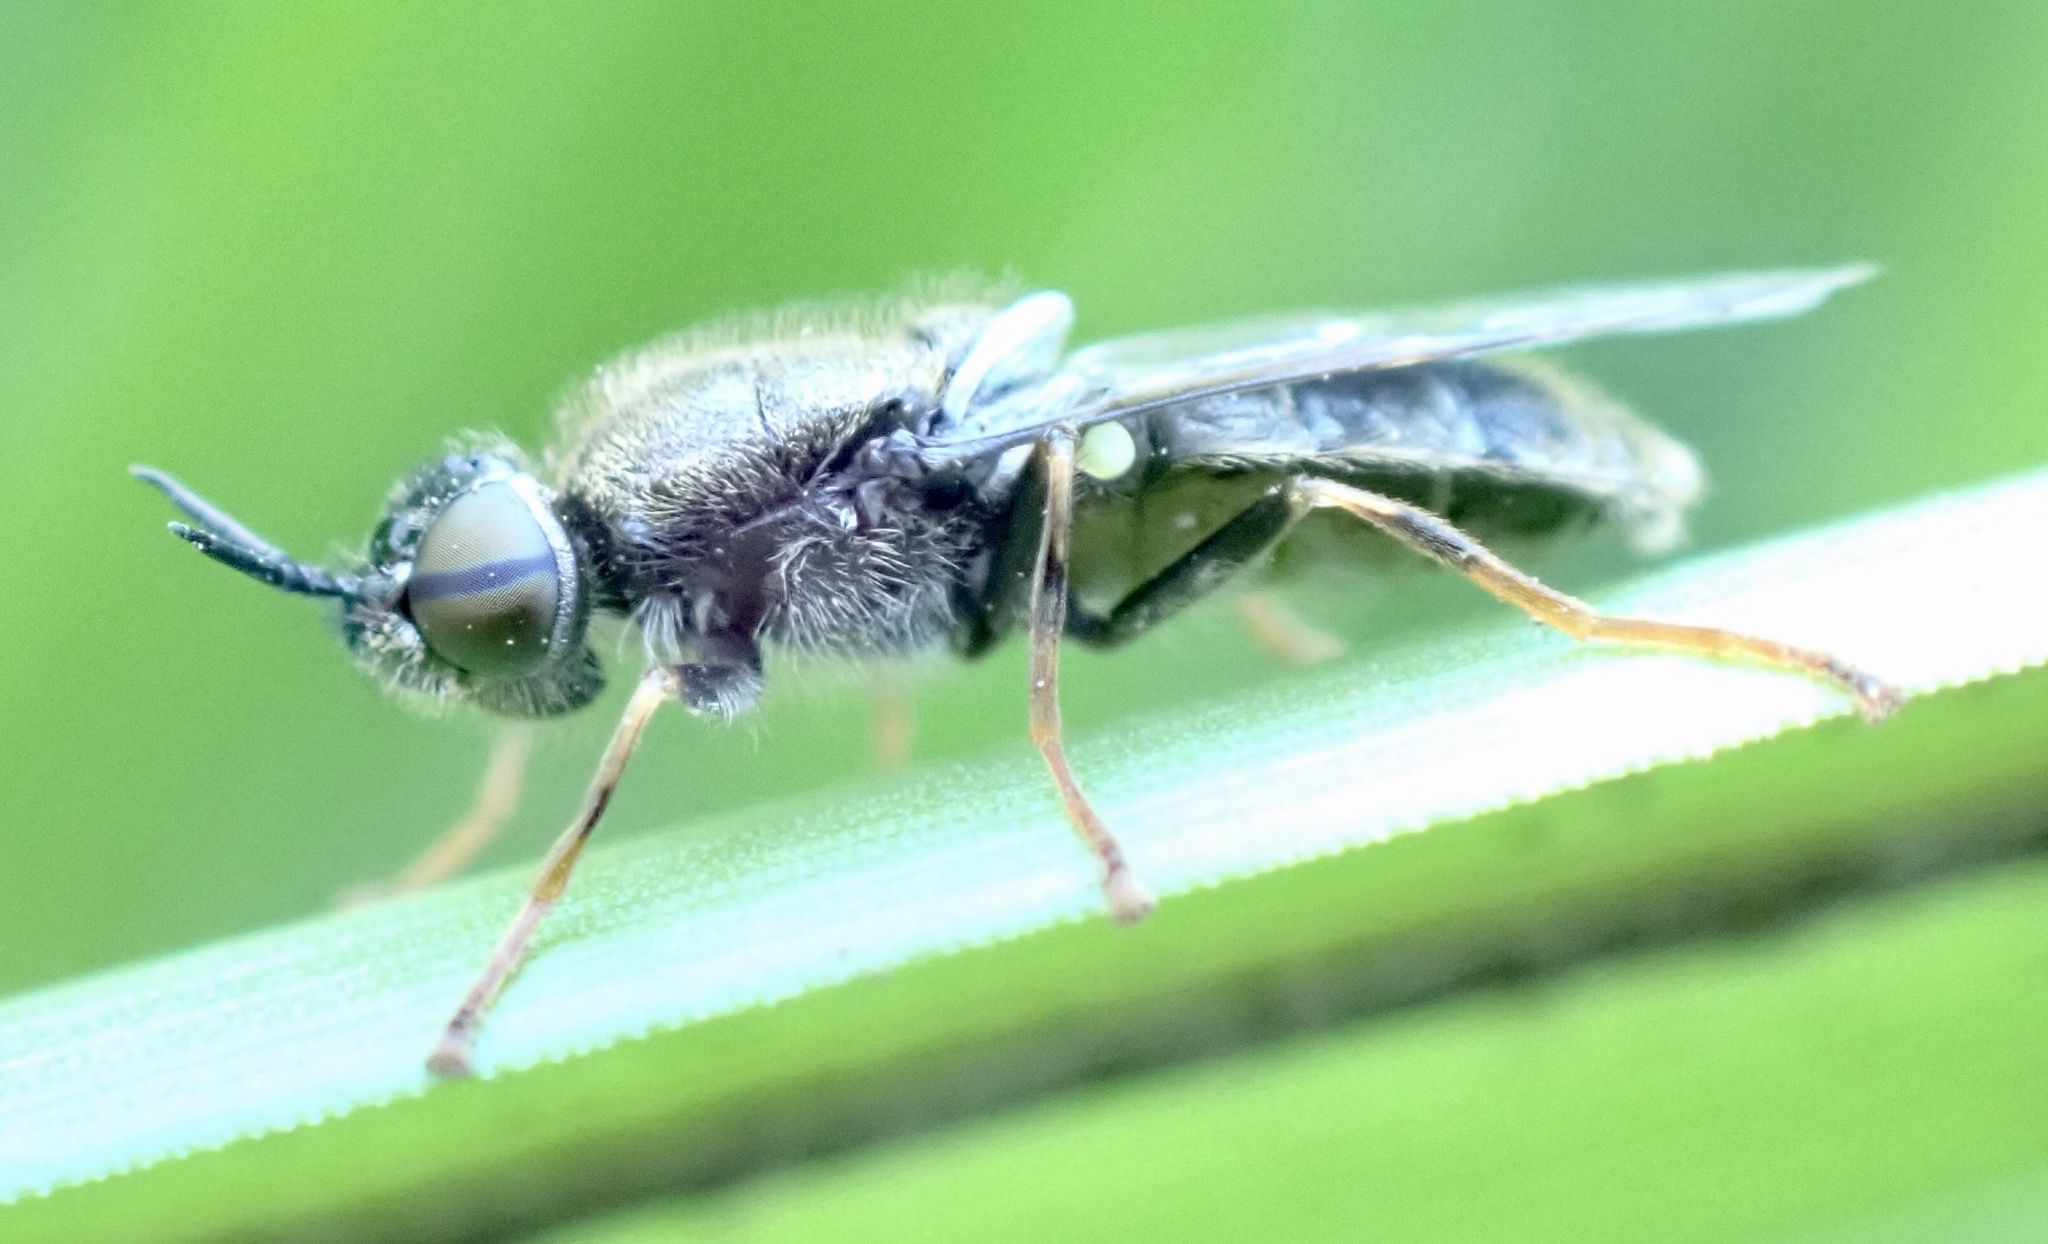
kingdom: Animalia
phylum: Arthropoda
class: Insecta
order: Diptera
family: Stratiomyidae
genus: Odontomyia
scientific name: Odontomyia tigrina
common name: Black colonel
